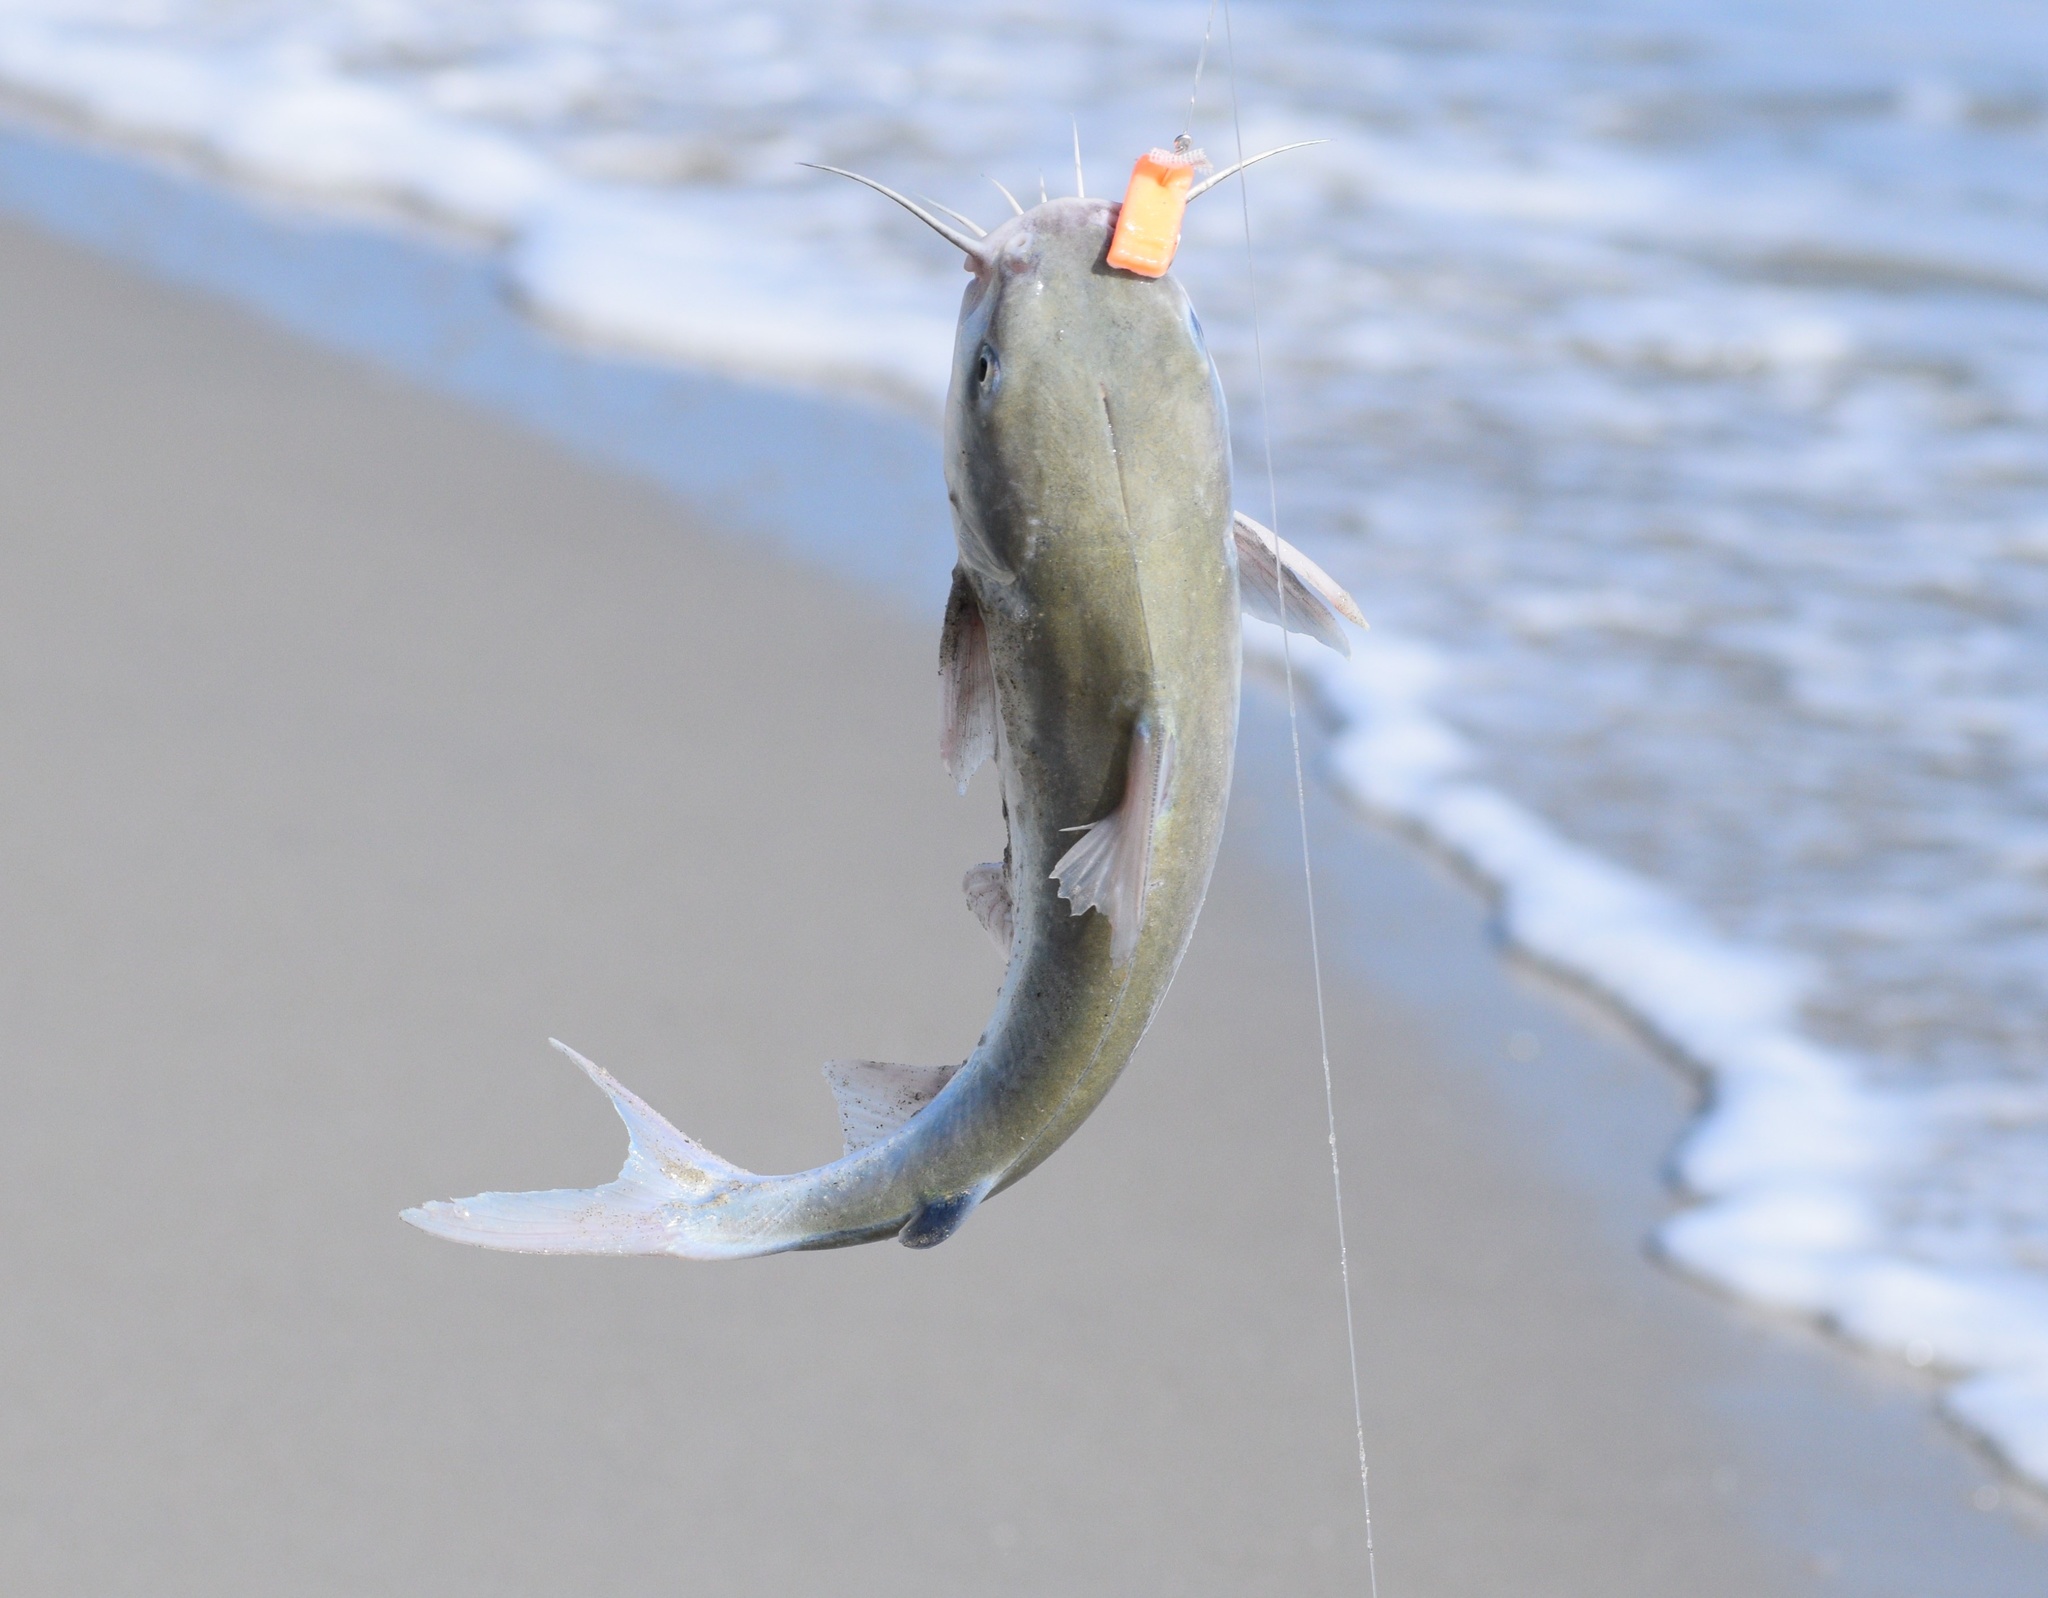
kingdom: Animalia
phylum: Chordata
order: Siluriformes
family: Ariidae
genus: Ariopsis
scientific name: Ariopsis felis
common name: Hardhead catfish
